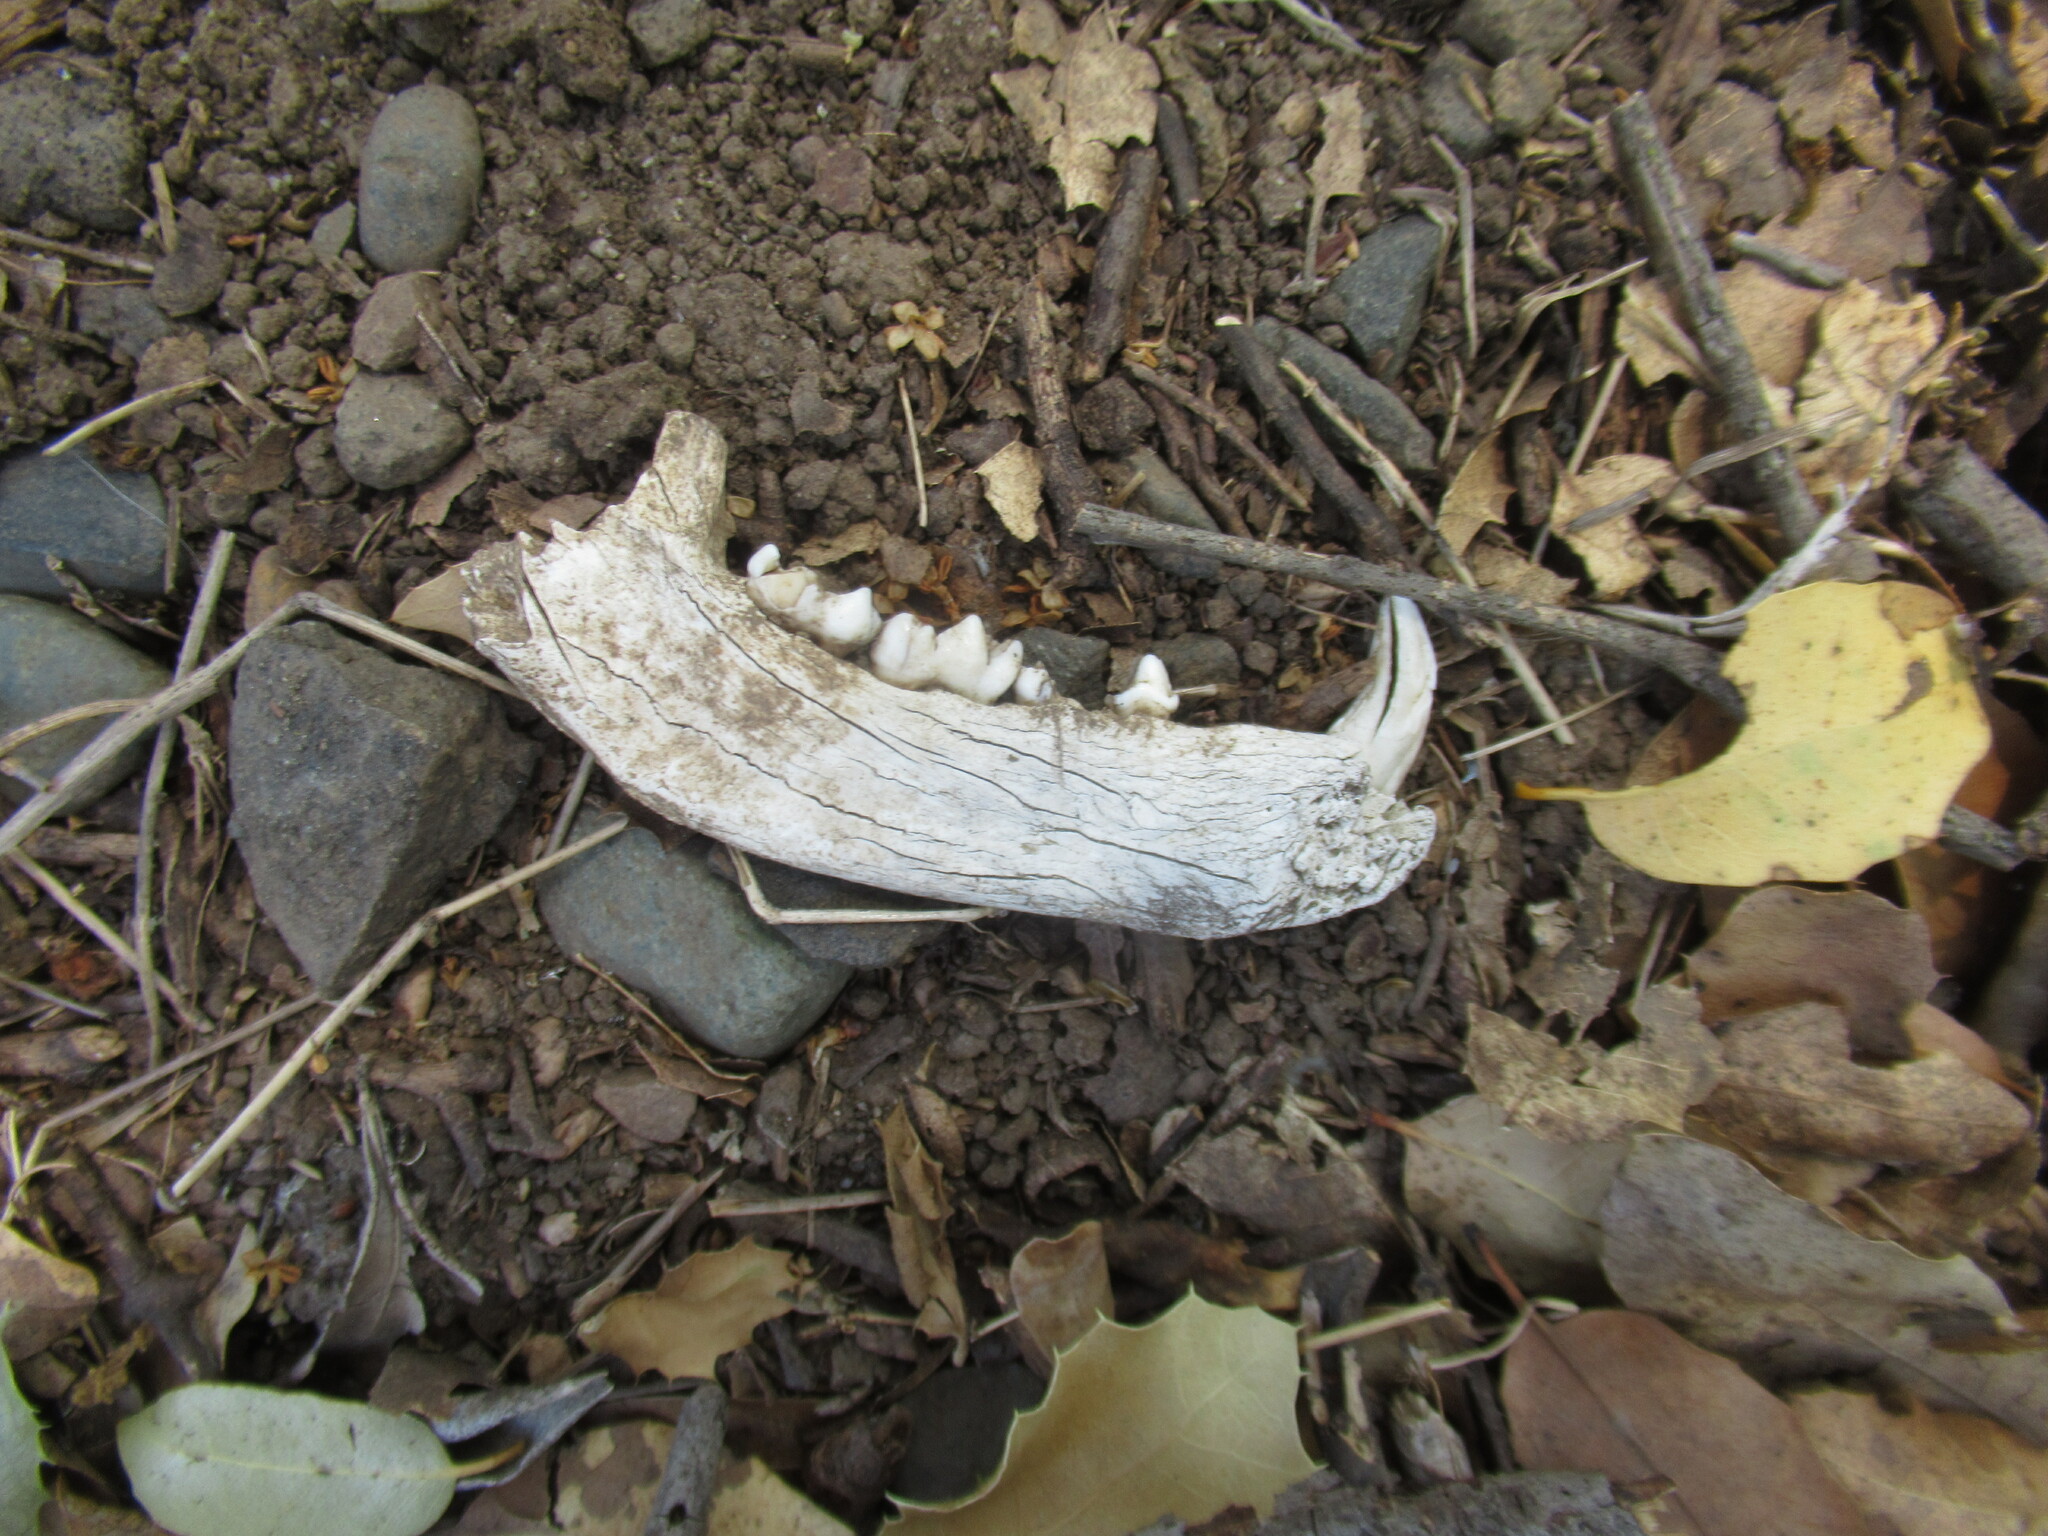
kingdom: Animalia
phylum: Chordata
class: Mammalia
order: Carnivora
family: Procyonidae
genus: Procyon
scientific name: Procyon lotor
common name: Raccoon
